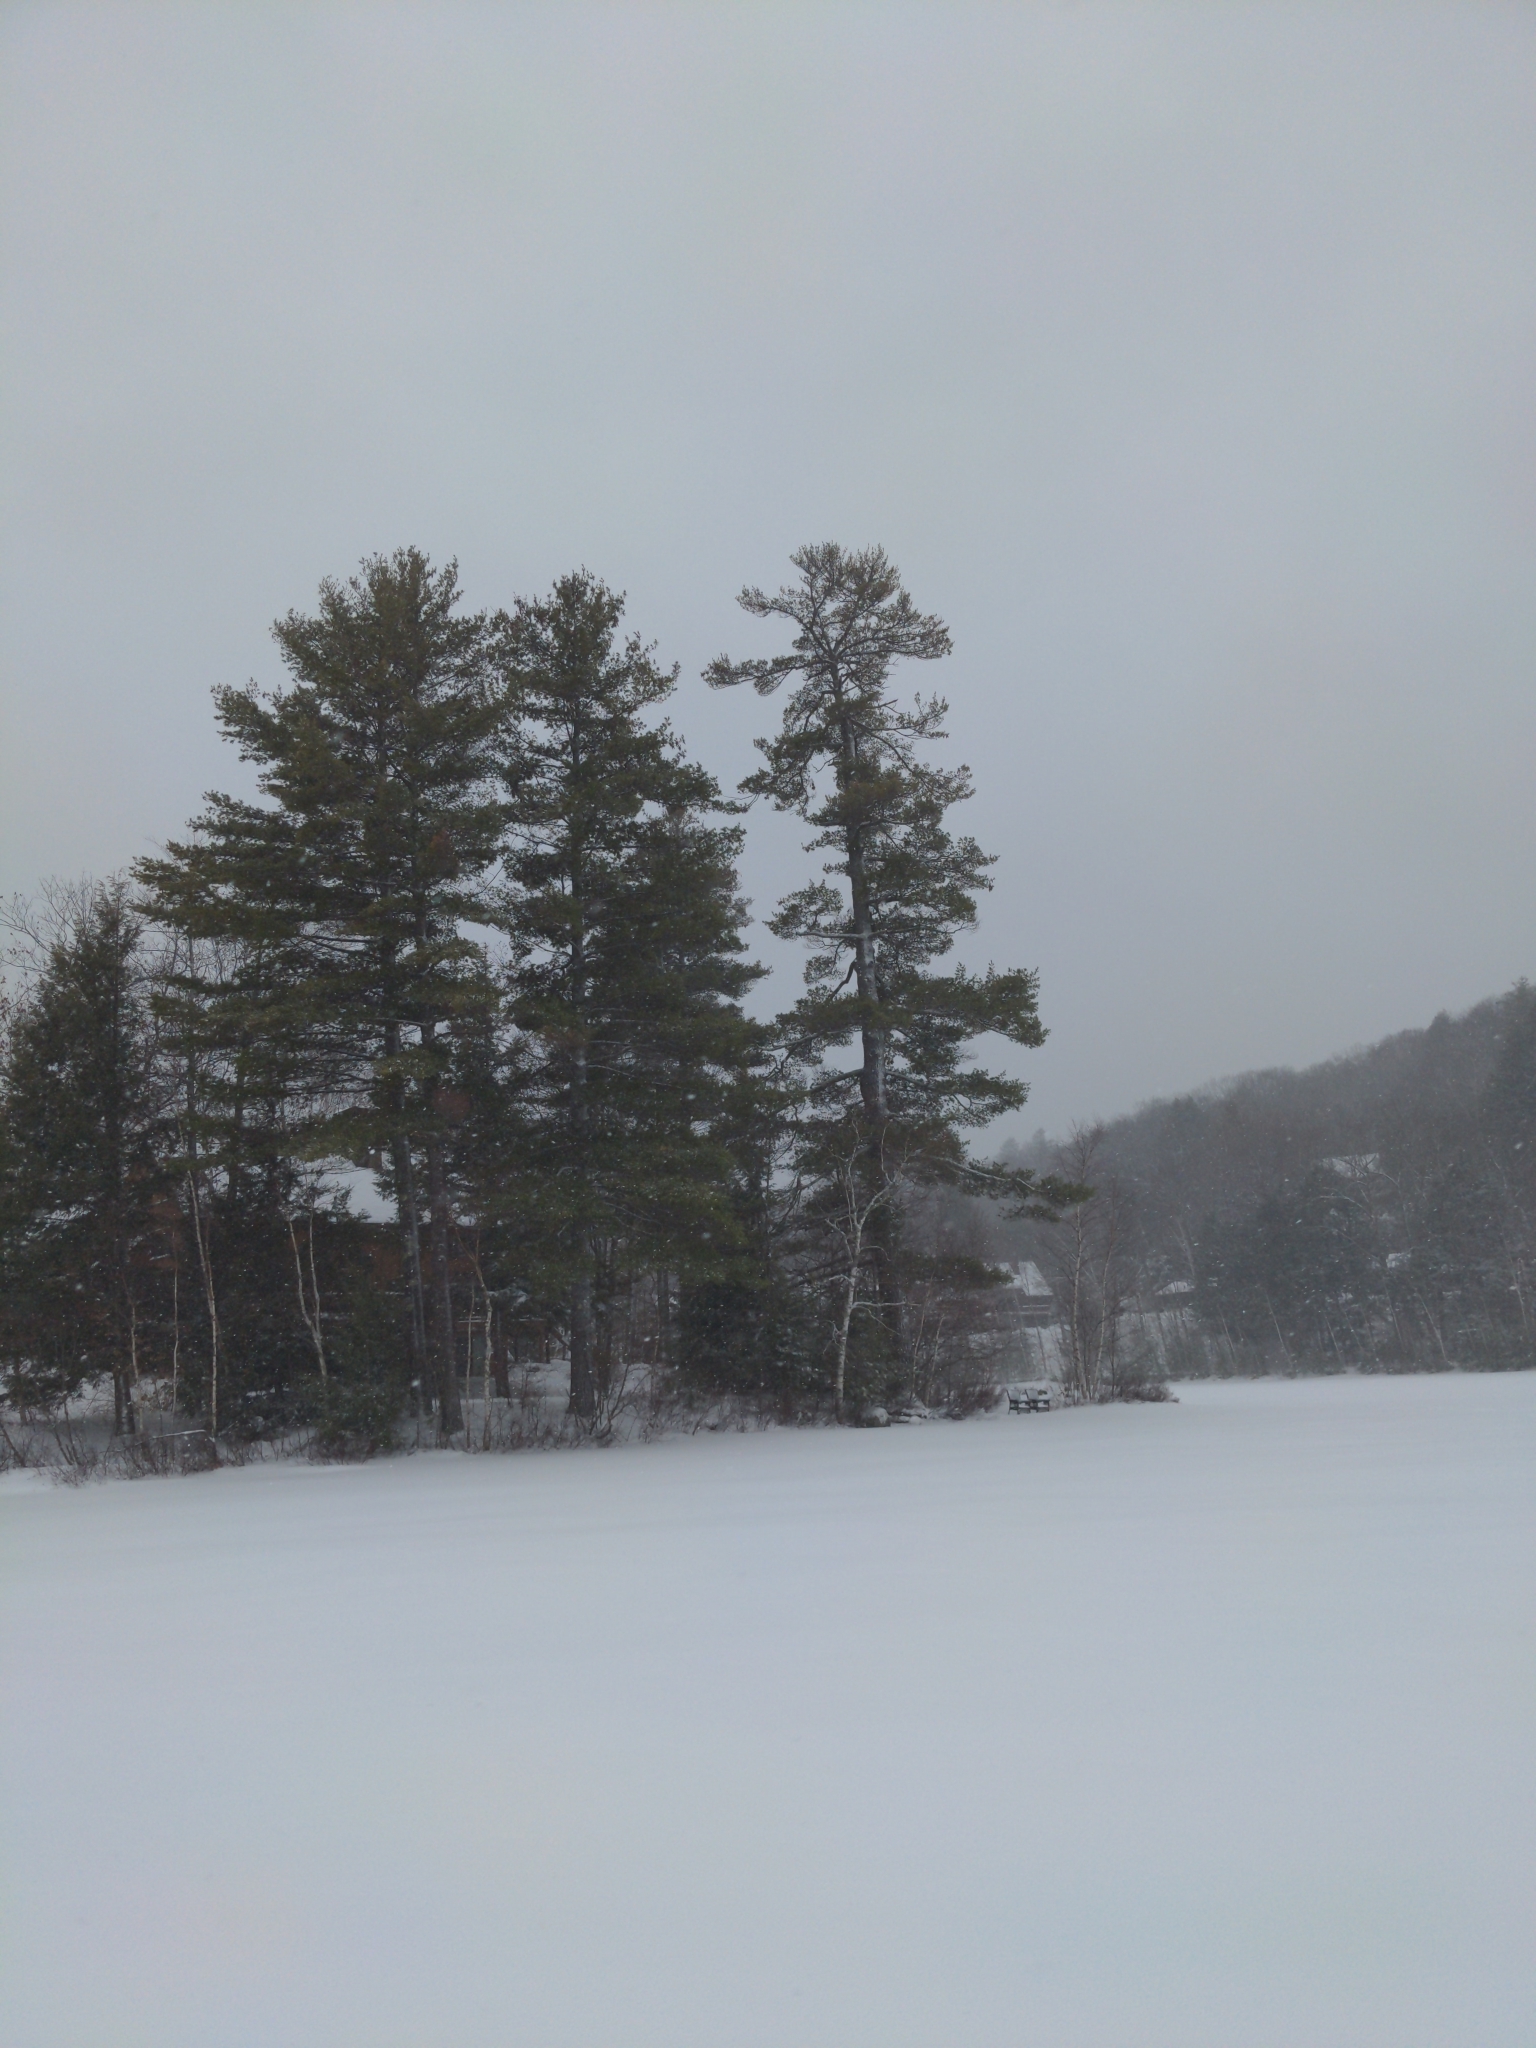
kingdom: Plantae
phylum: Tracheophyta
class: Pinopsida
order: Pinales
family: Pinaceae
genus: Pinus
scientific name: Pinus strobus
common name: Weymouth pine
